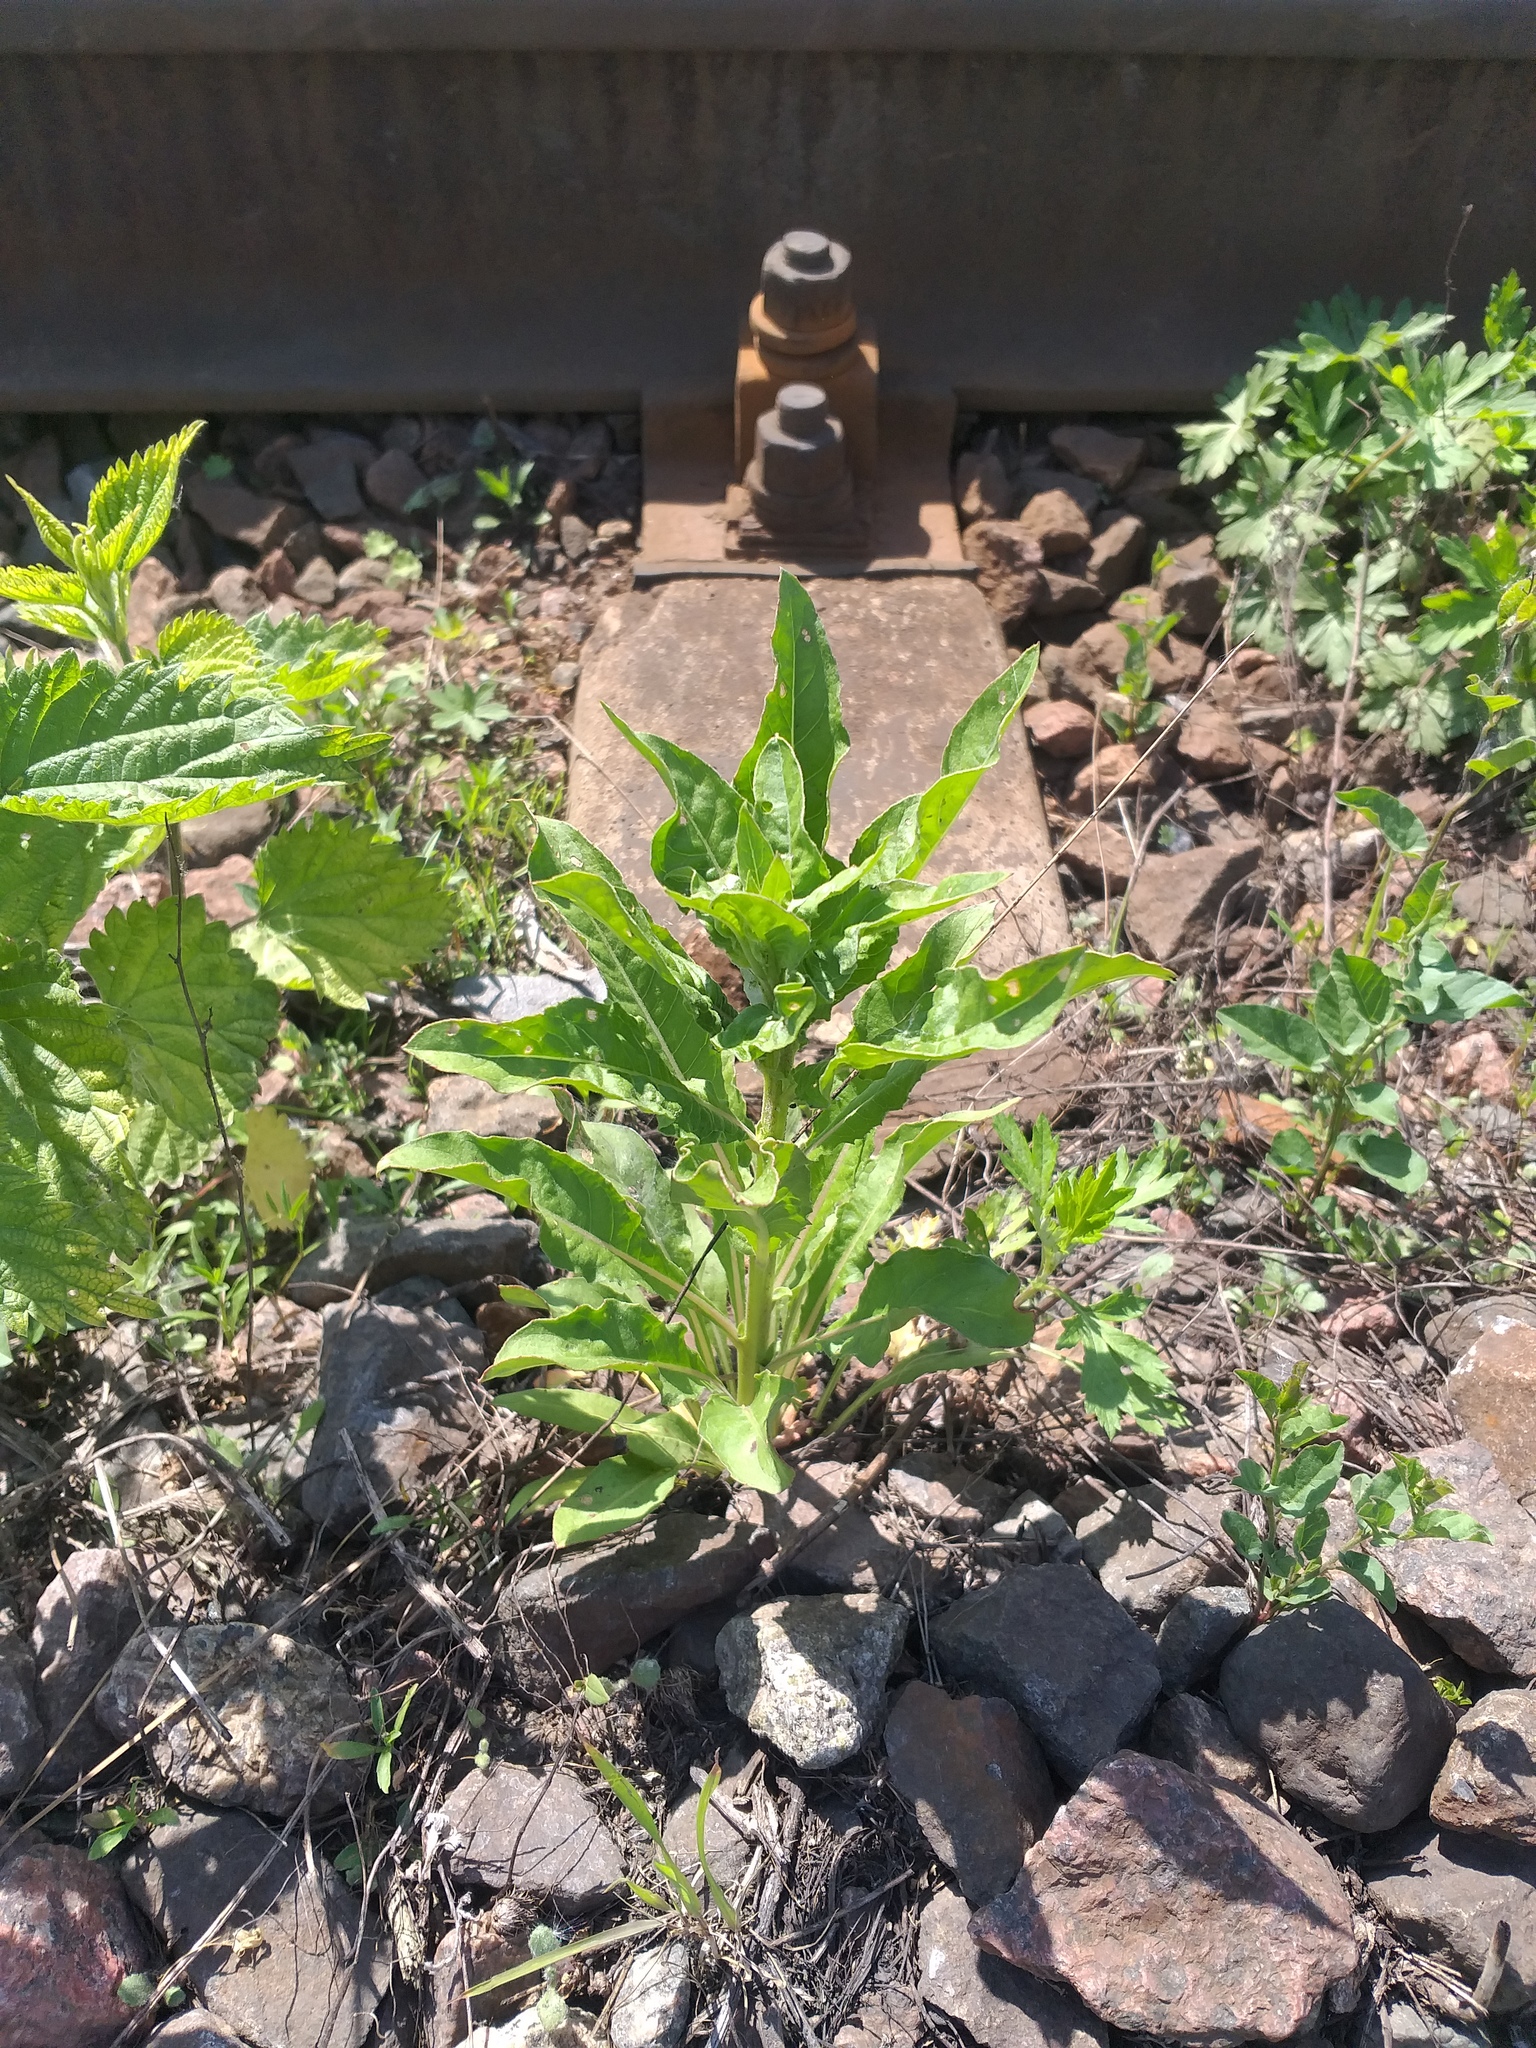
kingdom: Plantae
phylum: Tracheophyta
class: Magnoliopsida
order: Myrtales
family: Onagraceae
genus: Oenothera
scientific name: Oenothera
